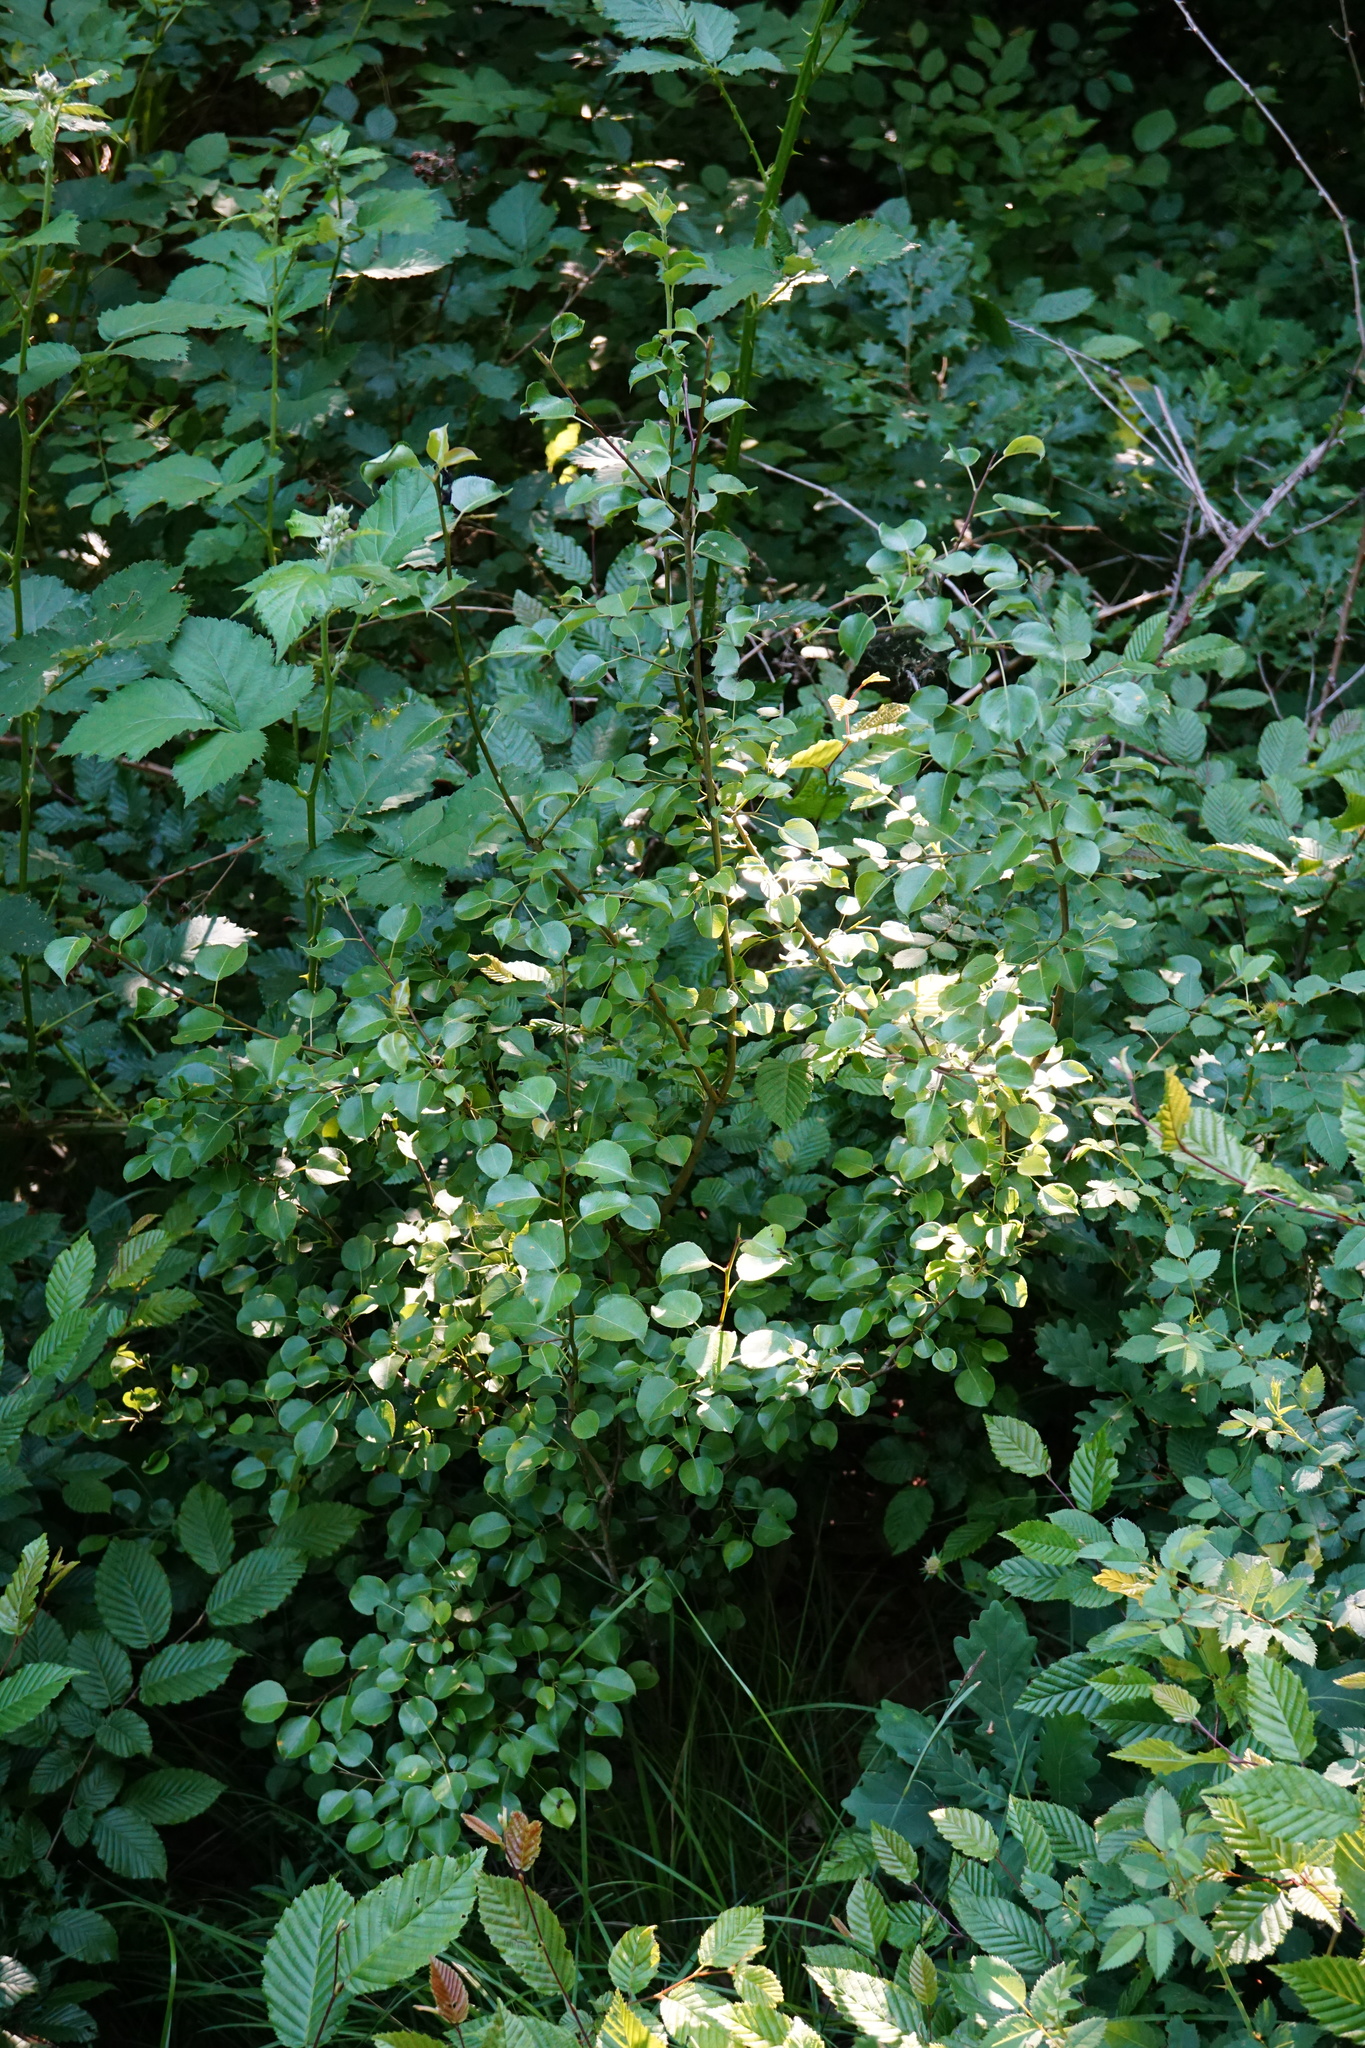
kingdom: Plantae
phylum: Tracheophyta
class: Magnoliopsida
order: Rosales
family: Rosaceae
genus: Pyrus
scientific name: Pyrus
